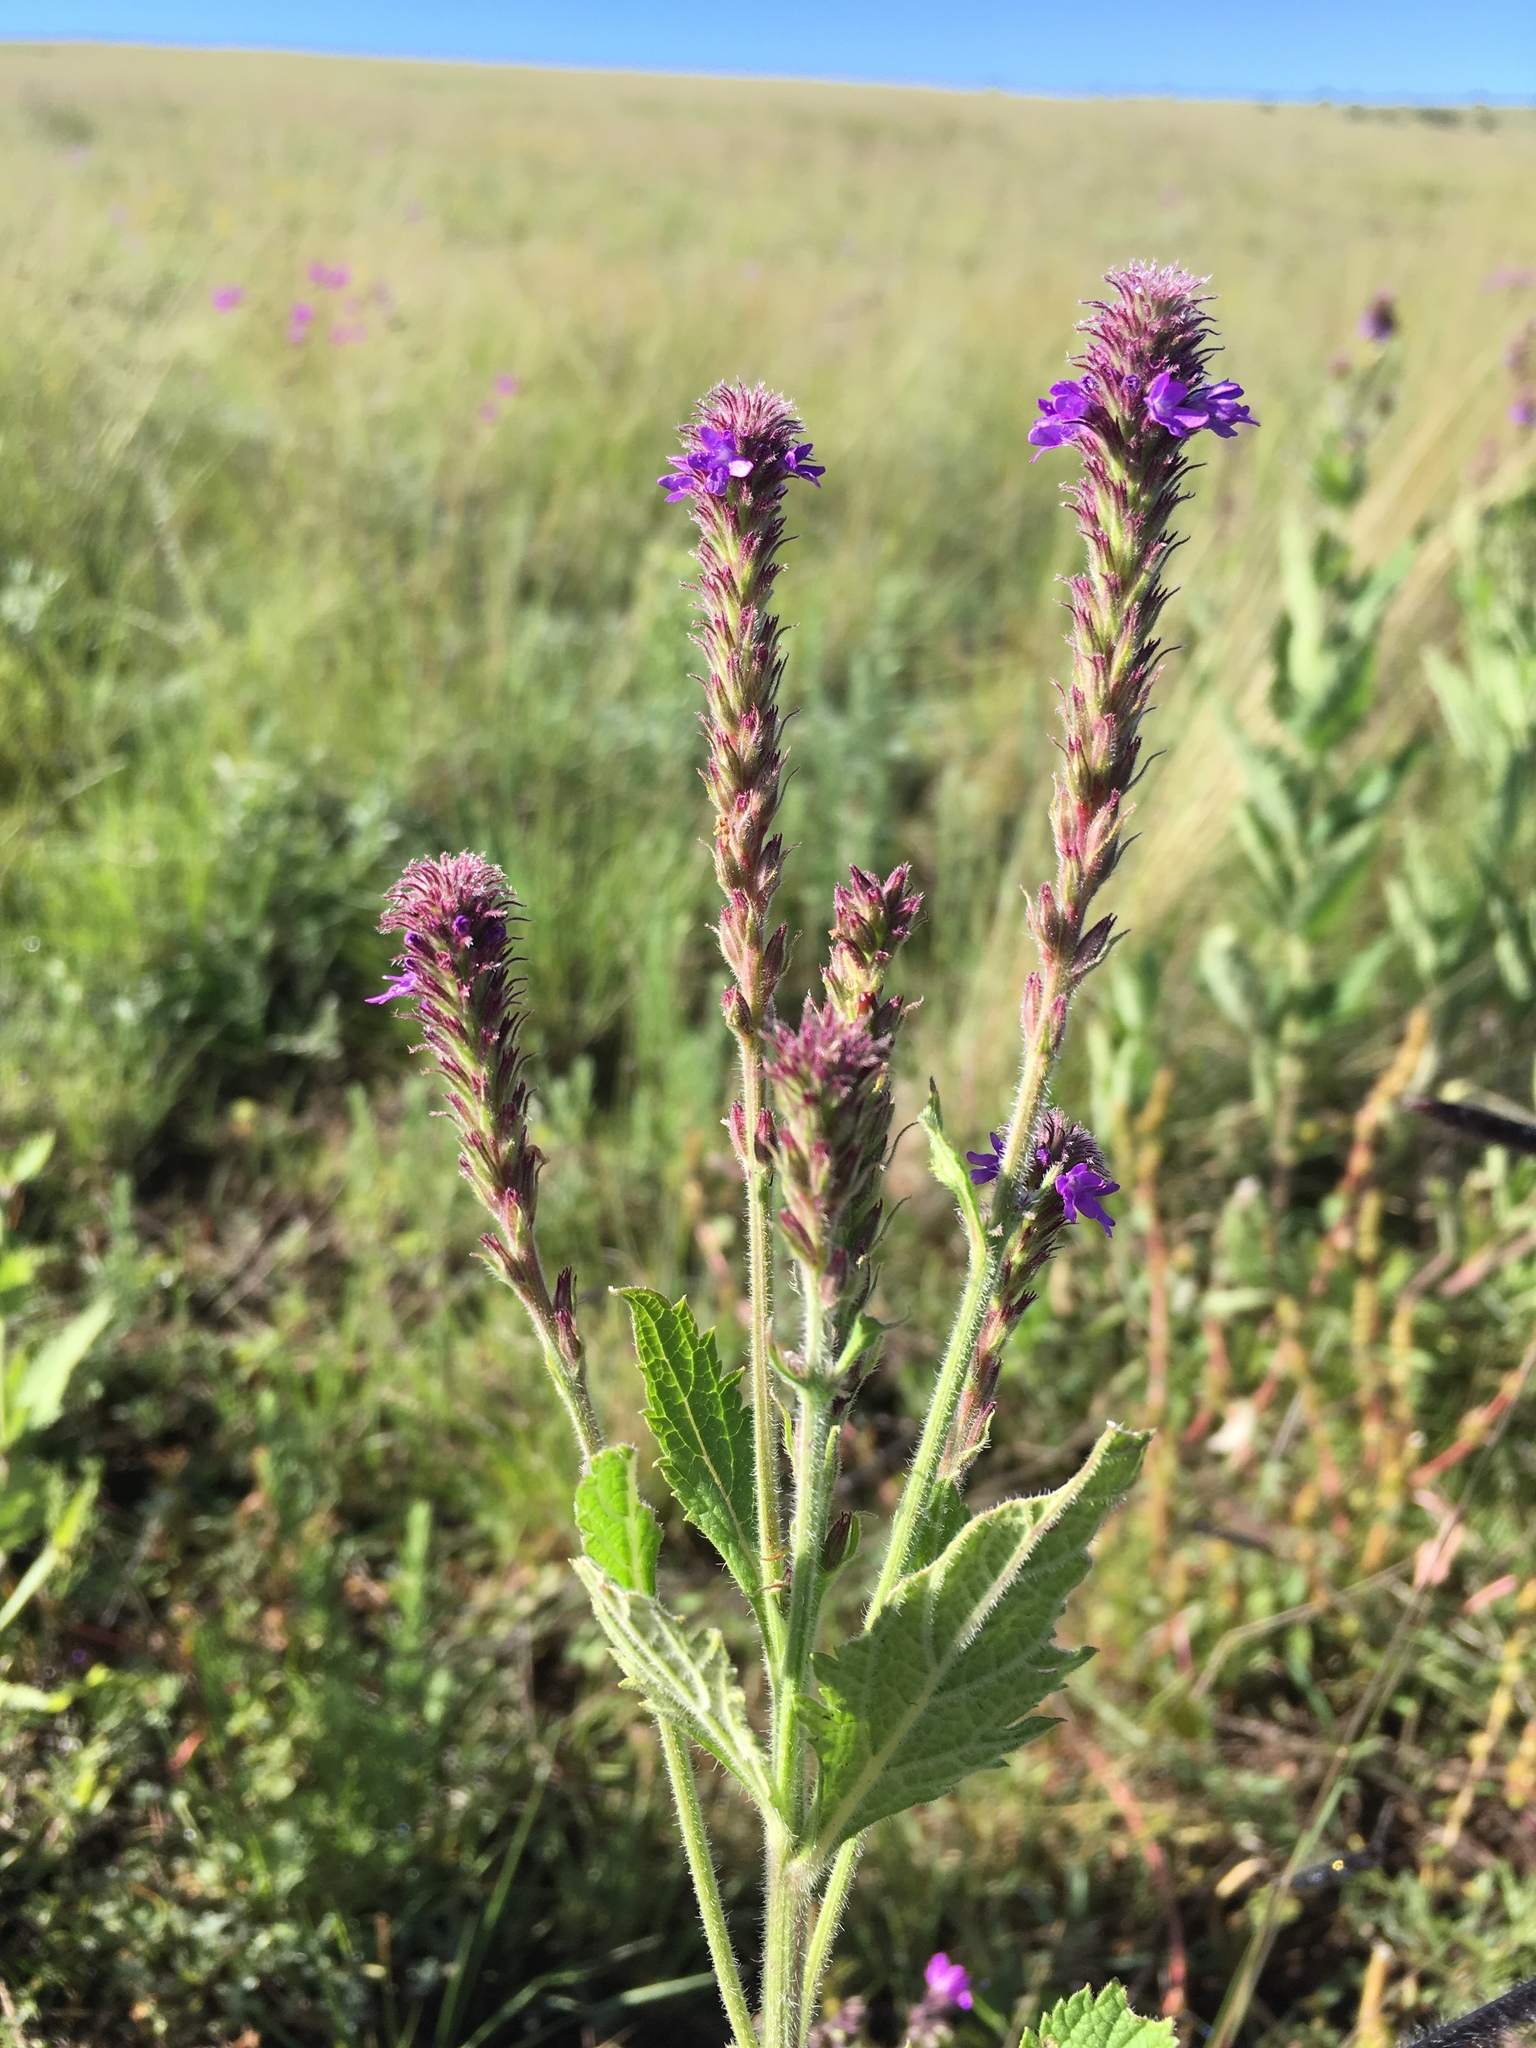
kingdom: Plantae
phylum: Tracheophyta
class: Magnoliopsida
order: Lamiales
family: Verbenaceae
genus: Verbena
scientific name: Verbena macdougalii
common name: New mexico vervain
